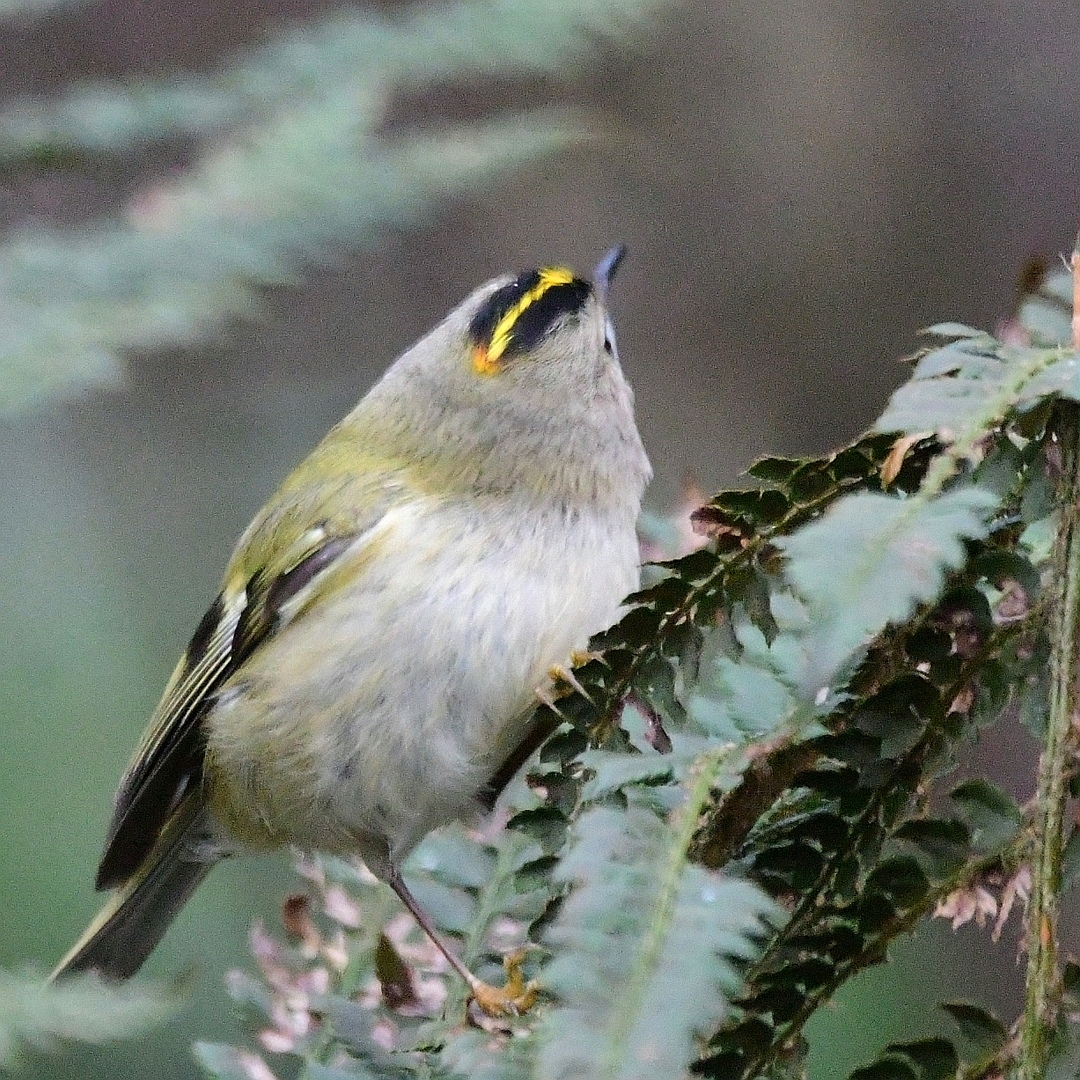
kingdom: Animalia
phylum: Chordata
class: Aves
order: Passeriformes
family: Regulidae
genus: Regulus
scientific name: Regulus regulus
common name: Goldcrest
